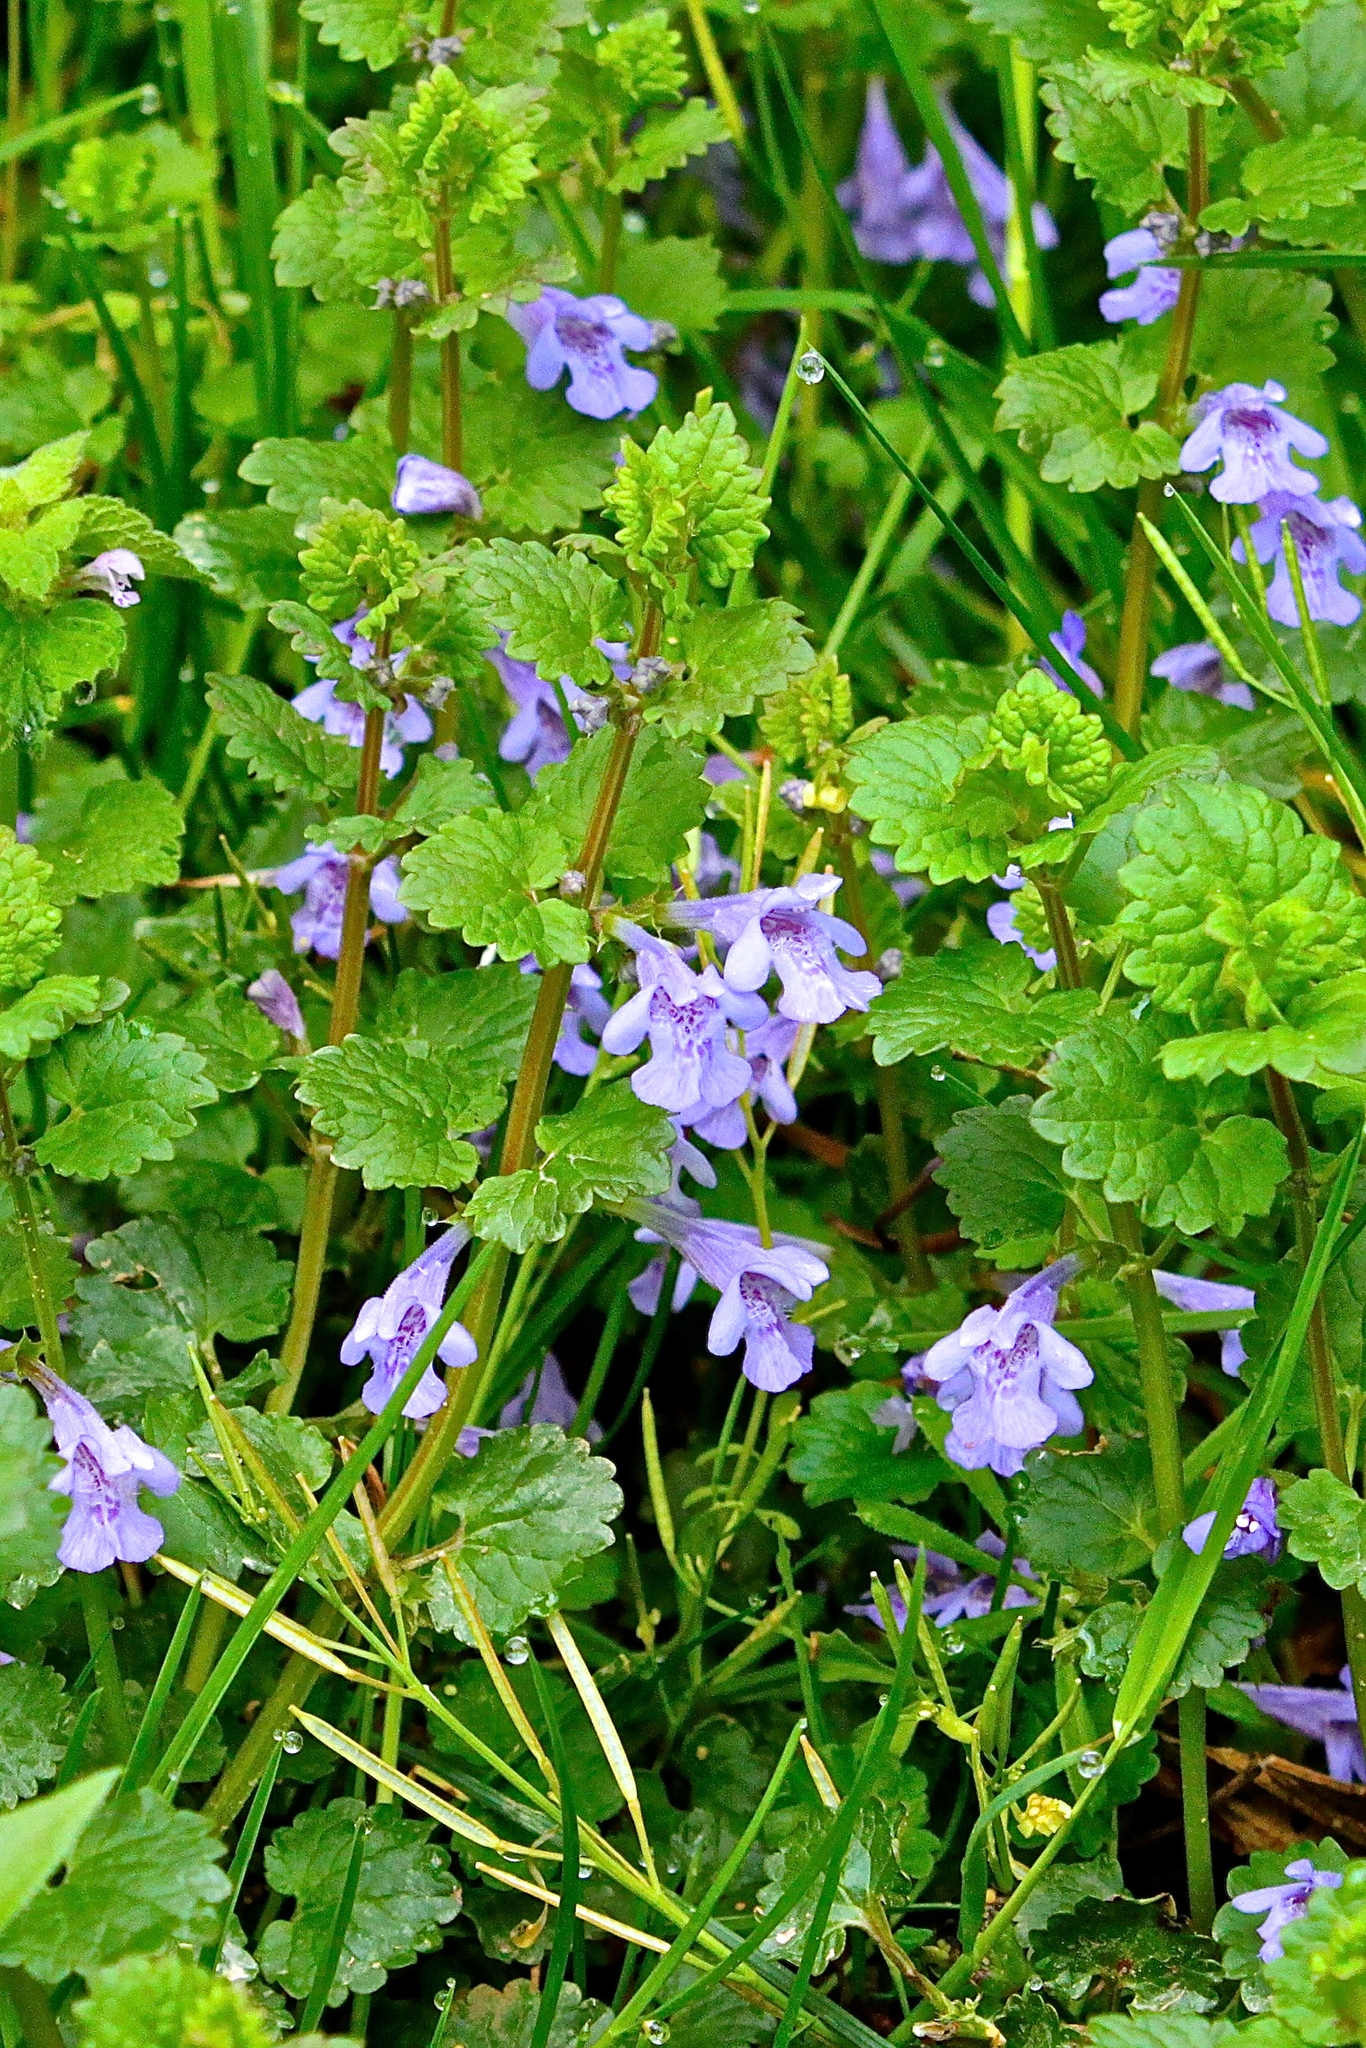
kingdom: Plantae
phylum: Tracheophyta
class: Magnoliopsida
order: Lamiales
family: Lamiaceae
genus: Glechoma
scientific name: Glechoma hederacea
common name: Ground ivy
